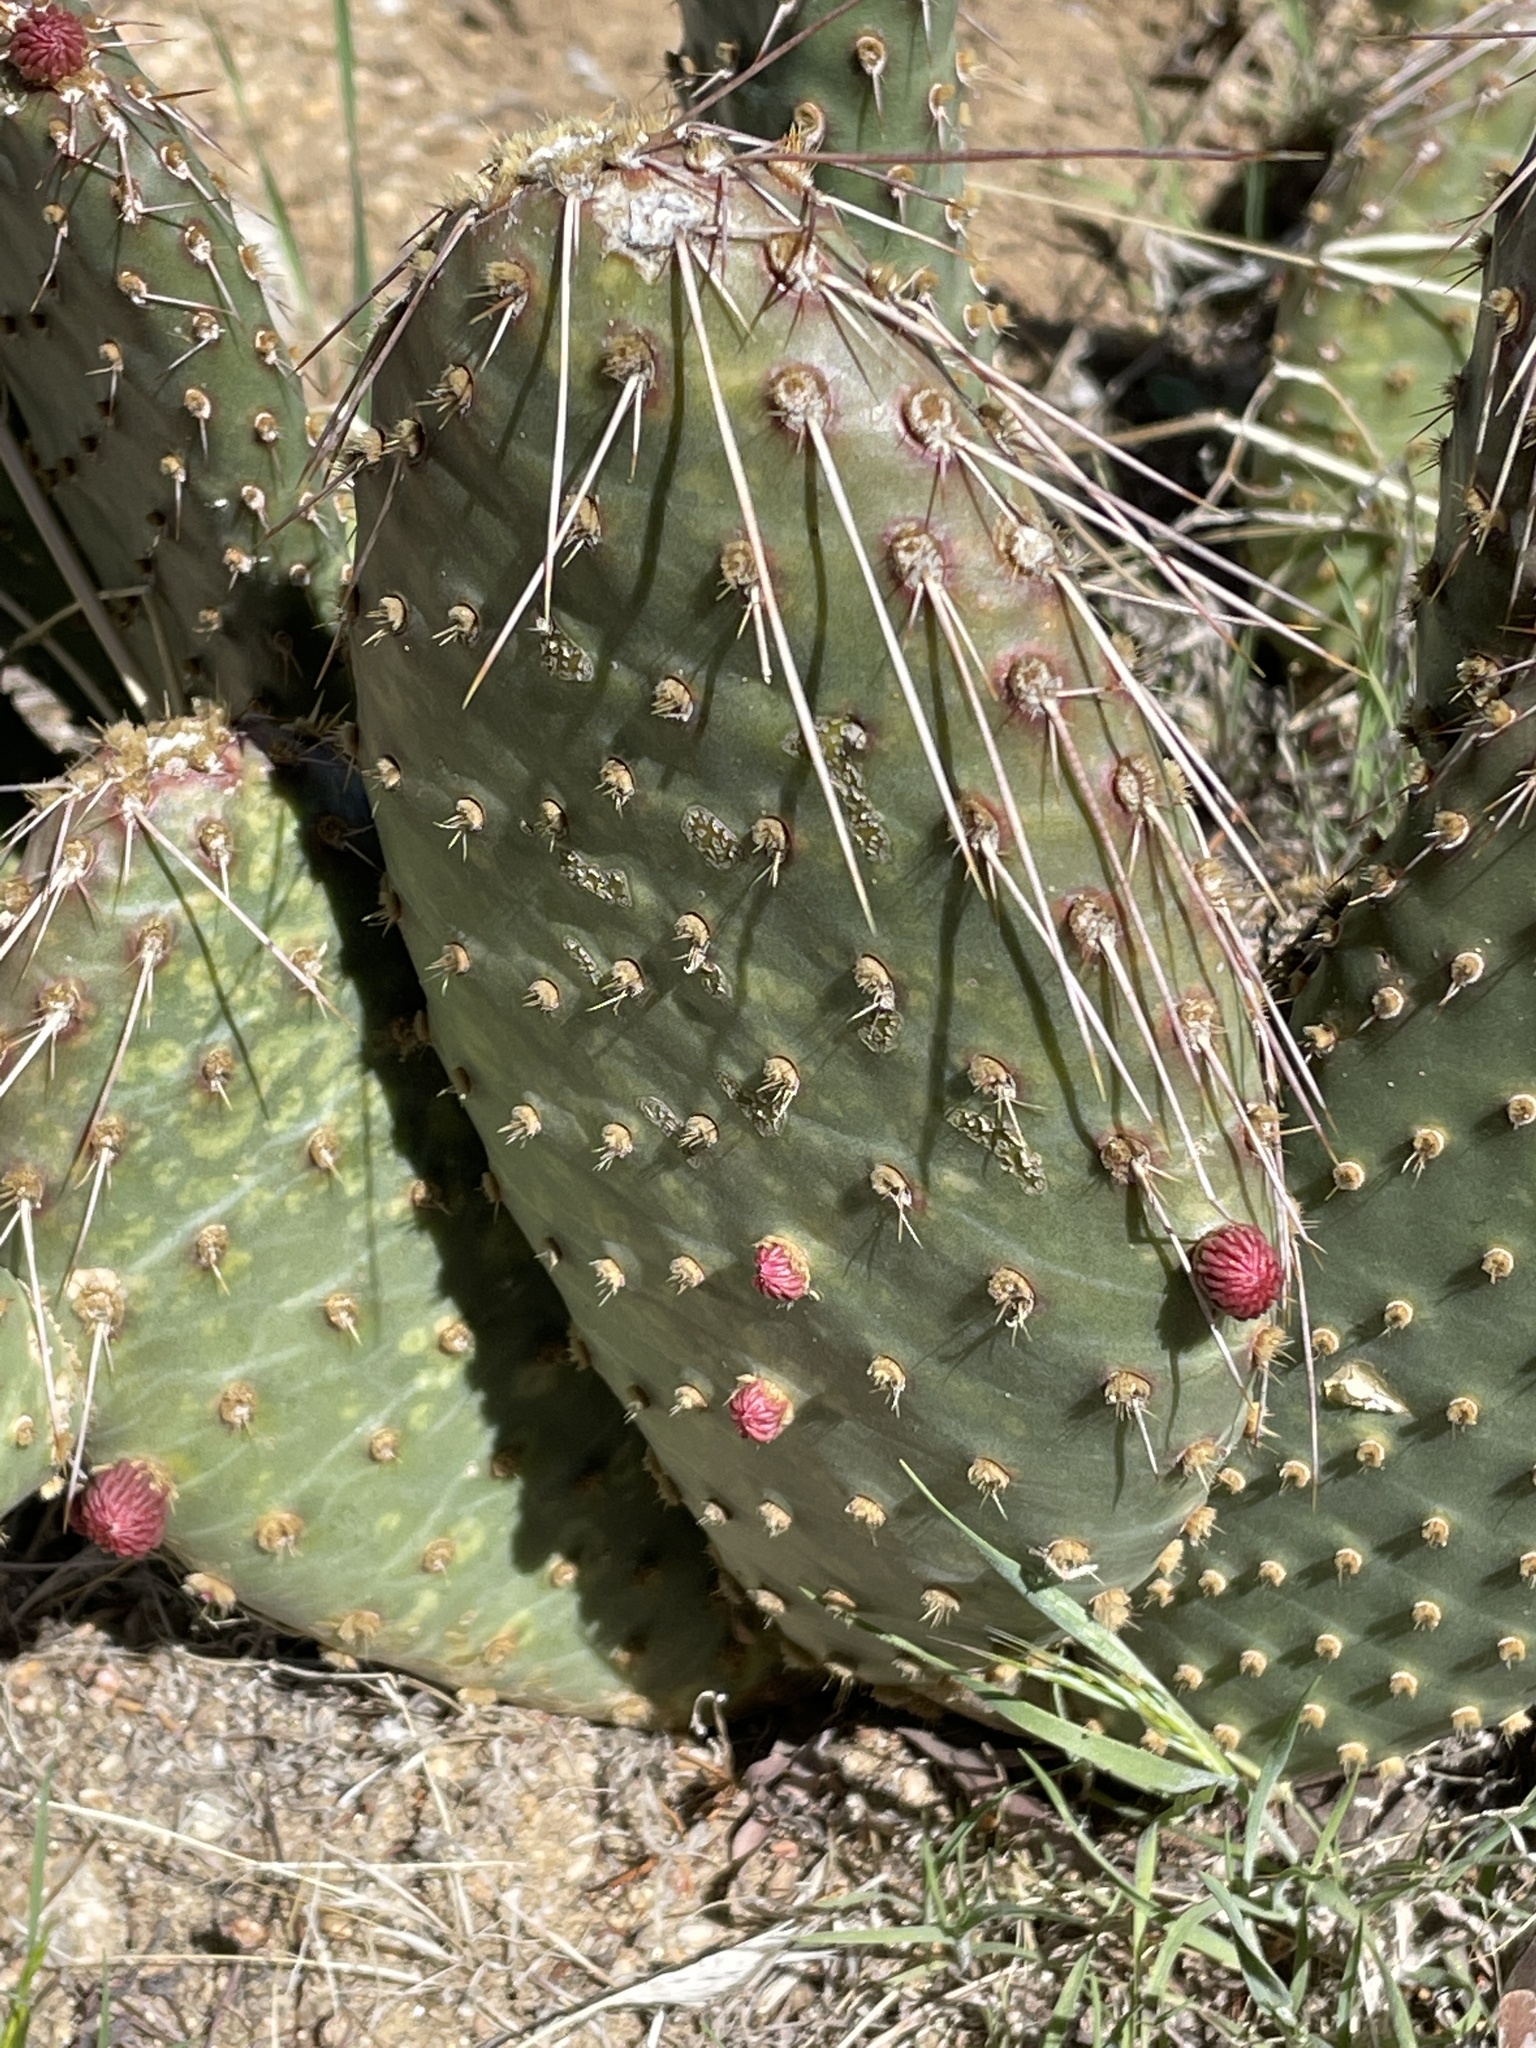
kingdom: Plantae
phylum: Tracheophyta
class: Magnoliopsida
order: Caryophyllales
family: Cactaceae
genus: Opuntia
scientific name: Opuntia polyacantha
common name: Plains prickly-pear
